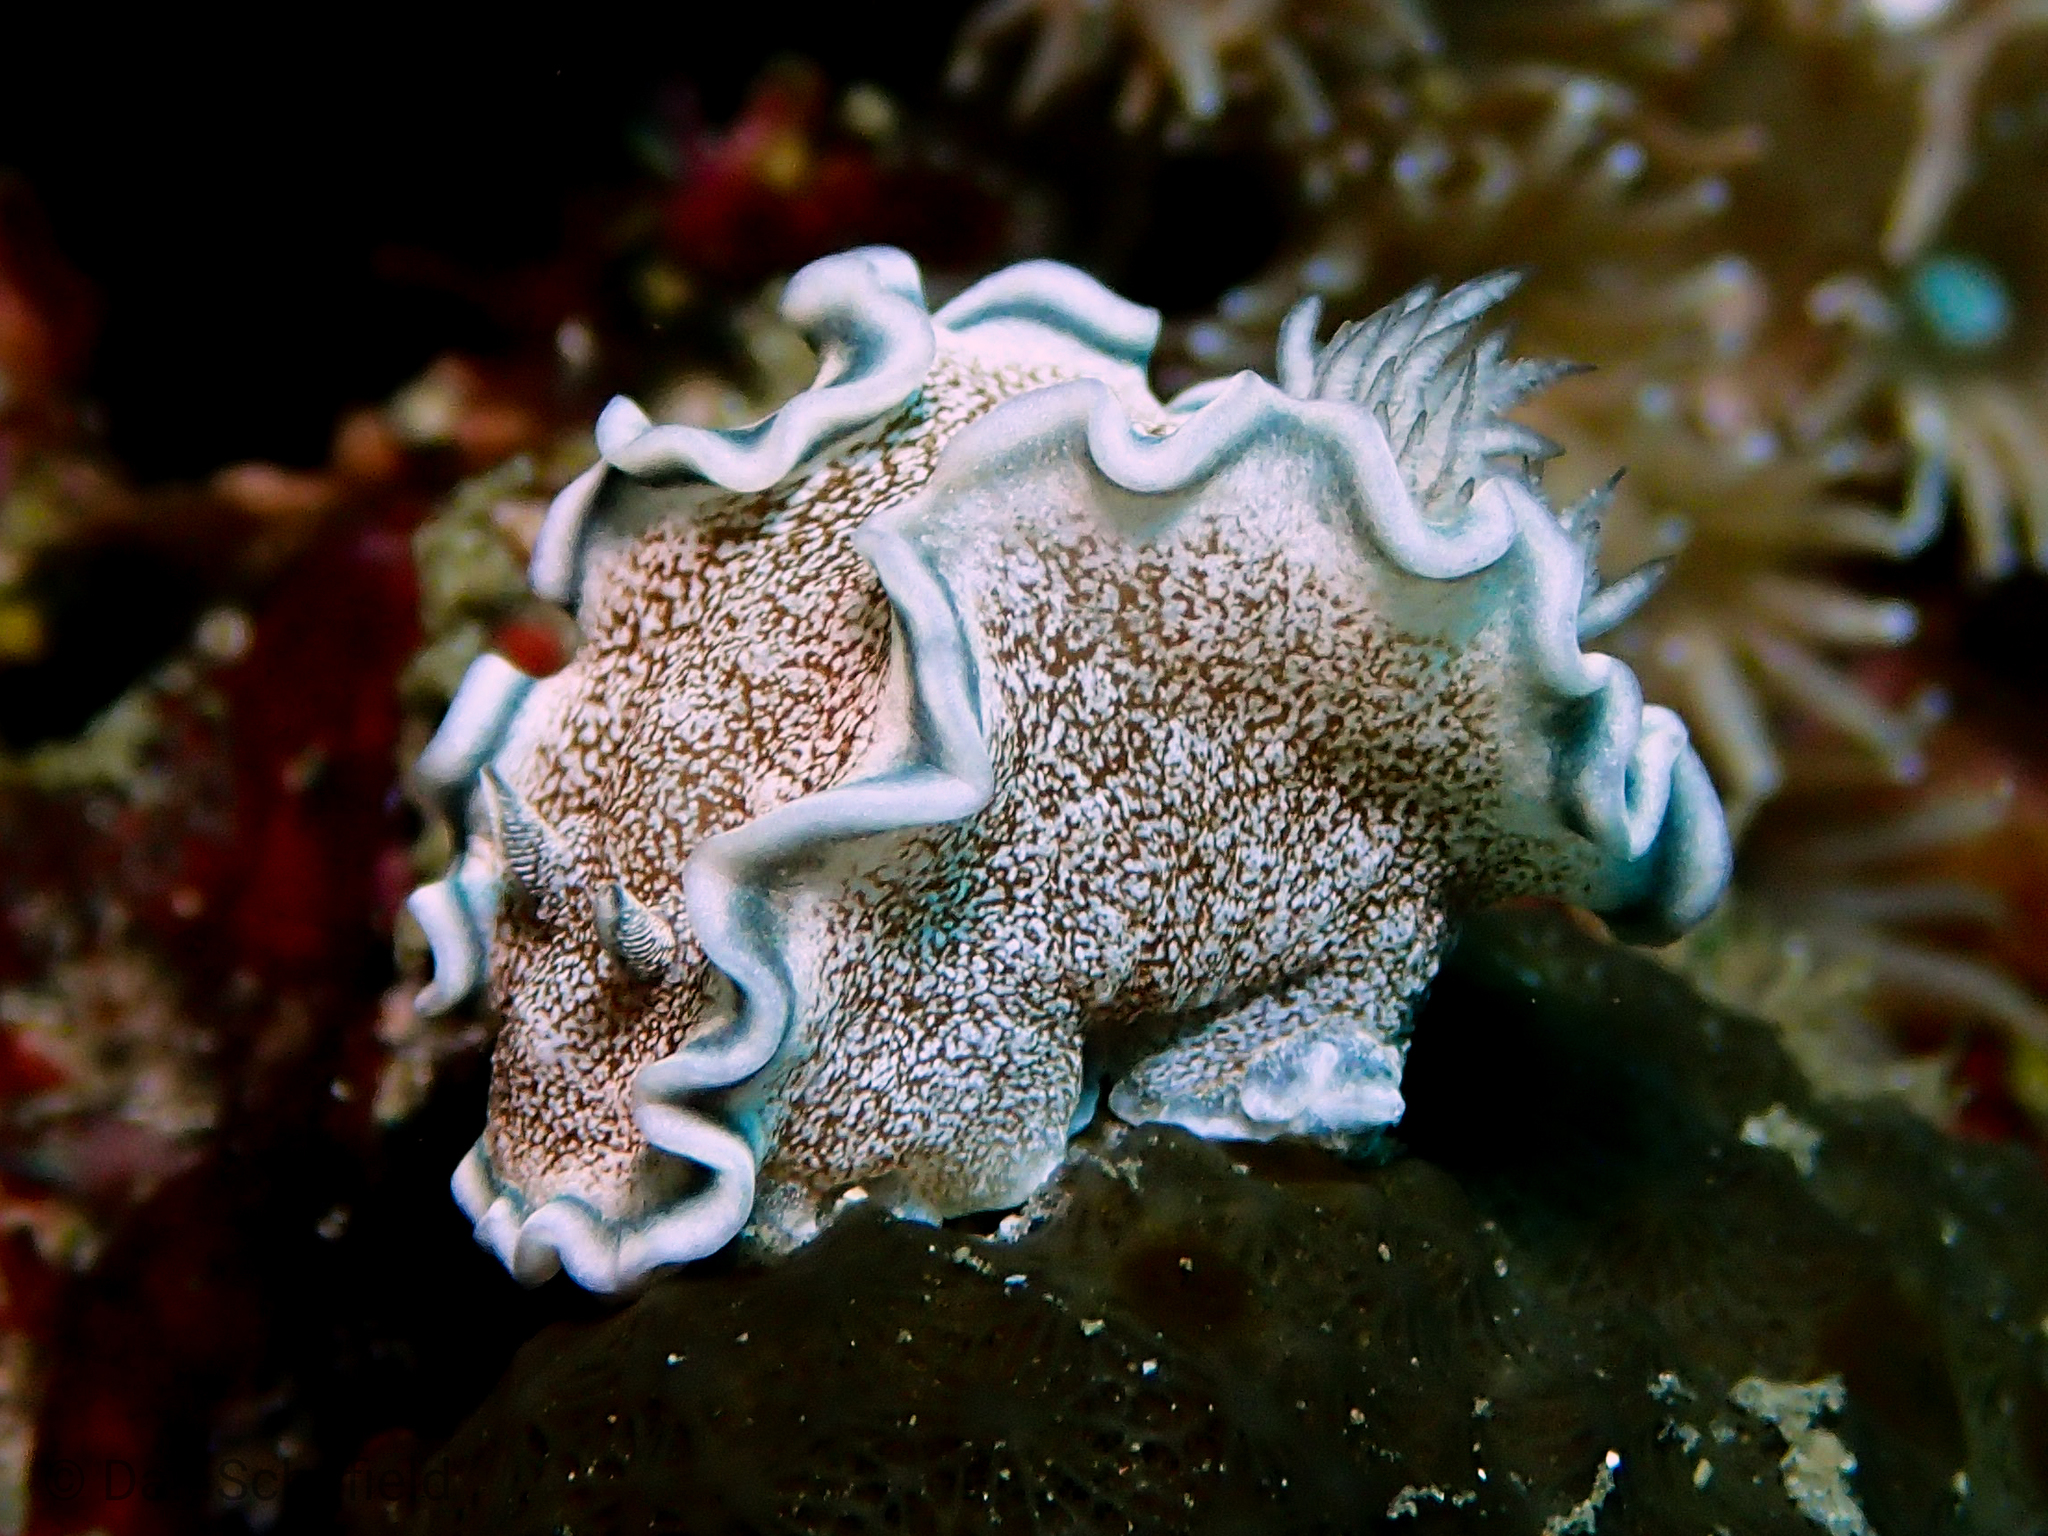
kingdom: Animalia
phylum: Mollusca
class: Gastropoda
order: Nudibranchia
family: Chromodorididae
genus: Glossodoris
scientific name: Glossodoris hikuerensis
